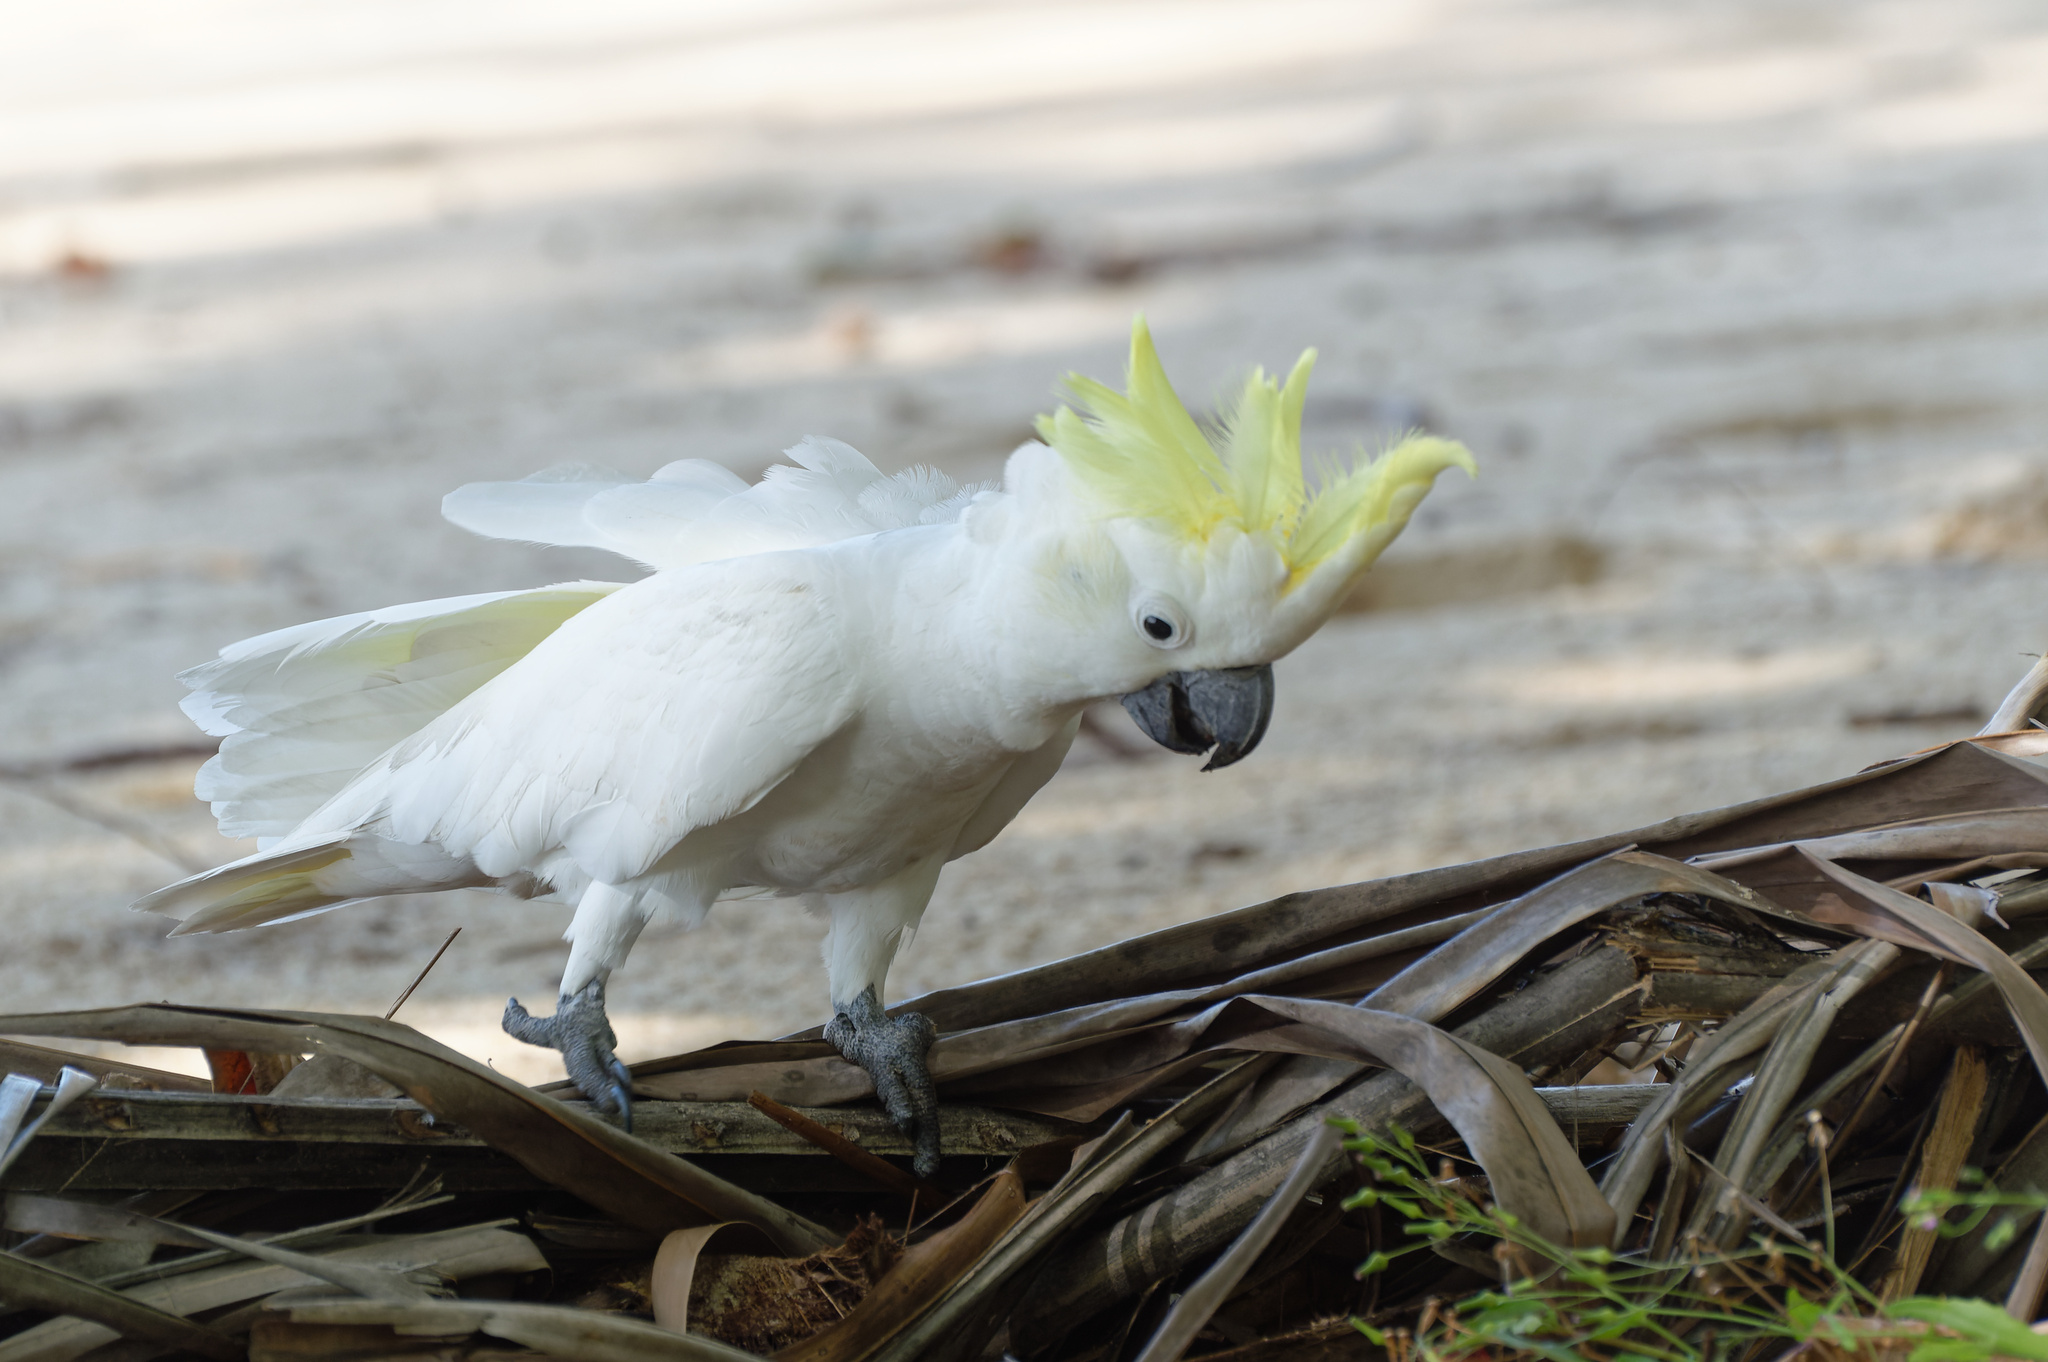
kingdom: Animalia
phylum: Chordata
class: Aves
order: Psittaciformes
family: Psittacidae
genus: Cacatua
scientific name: Cacatua galerita
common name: Sulphur-crested cockatoo
